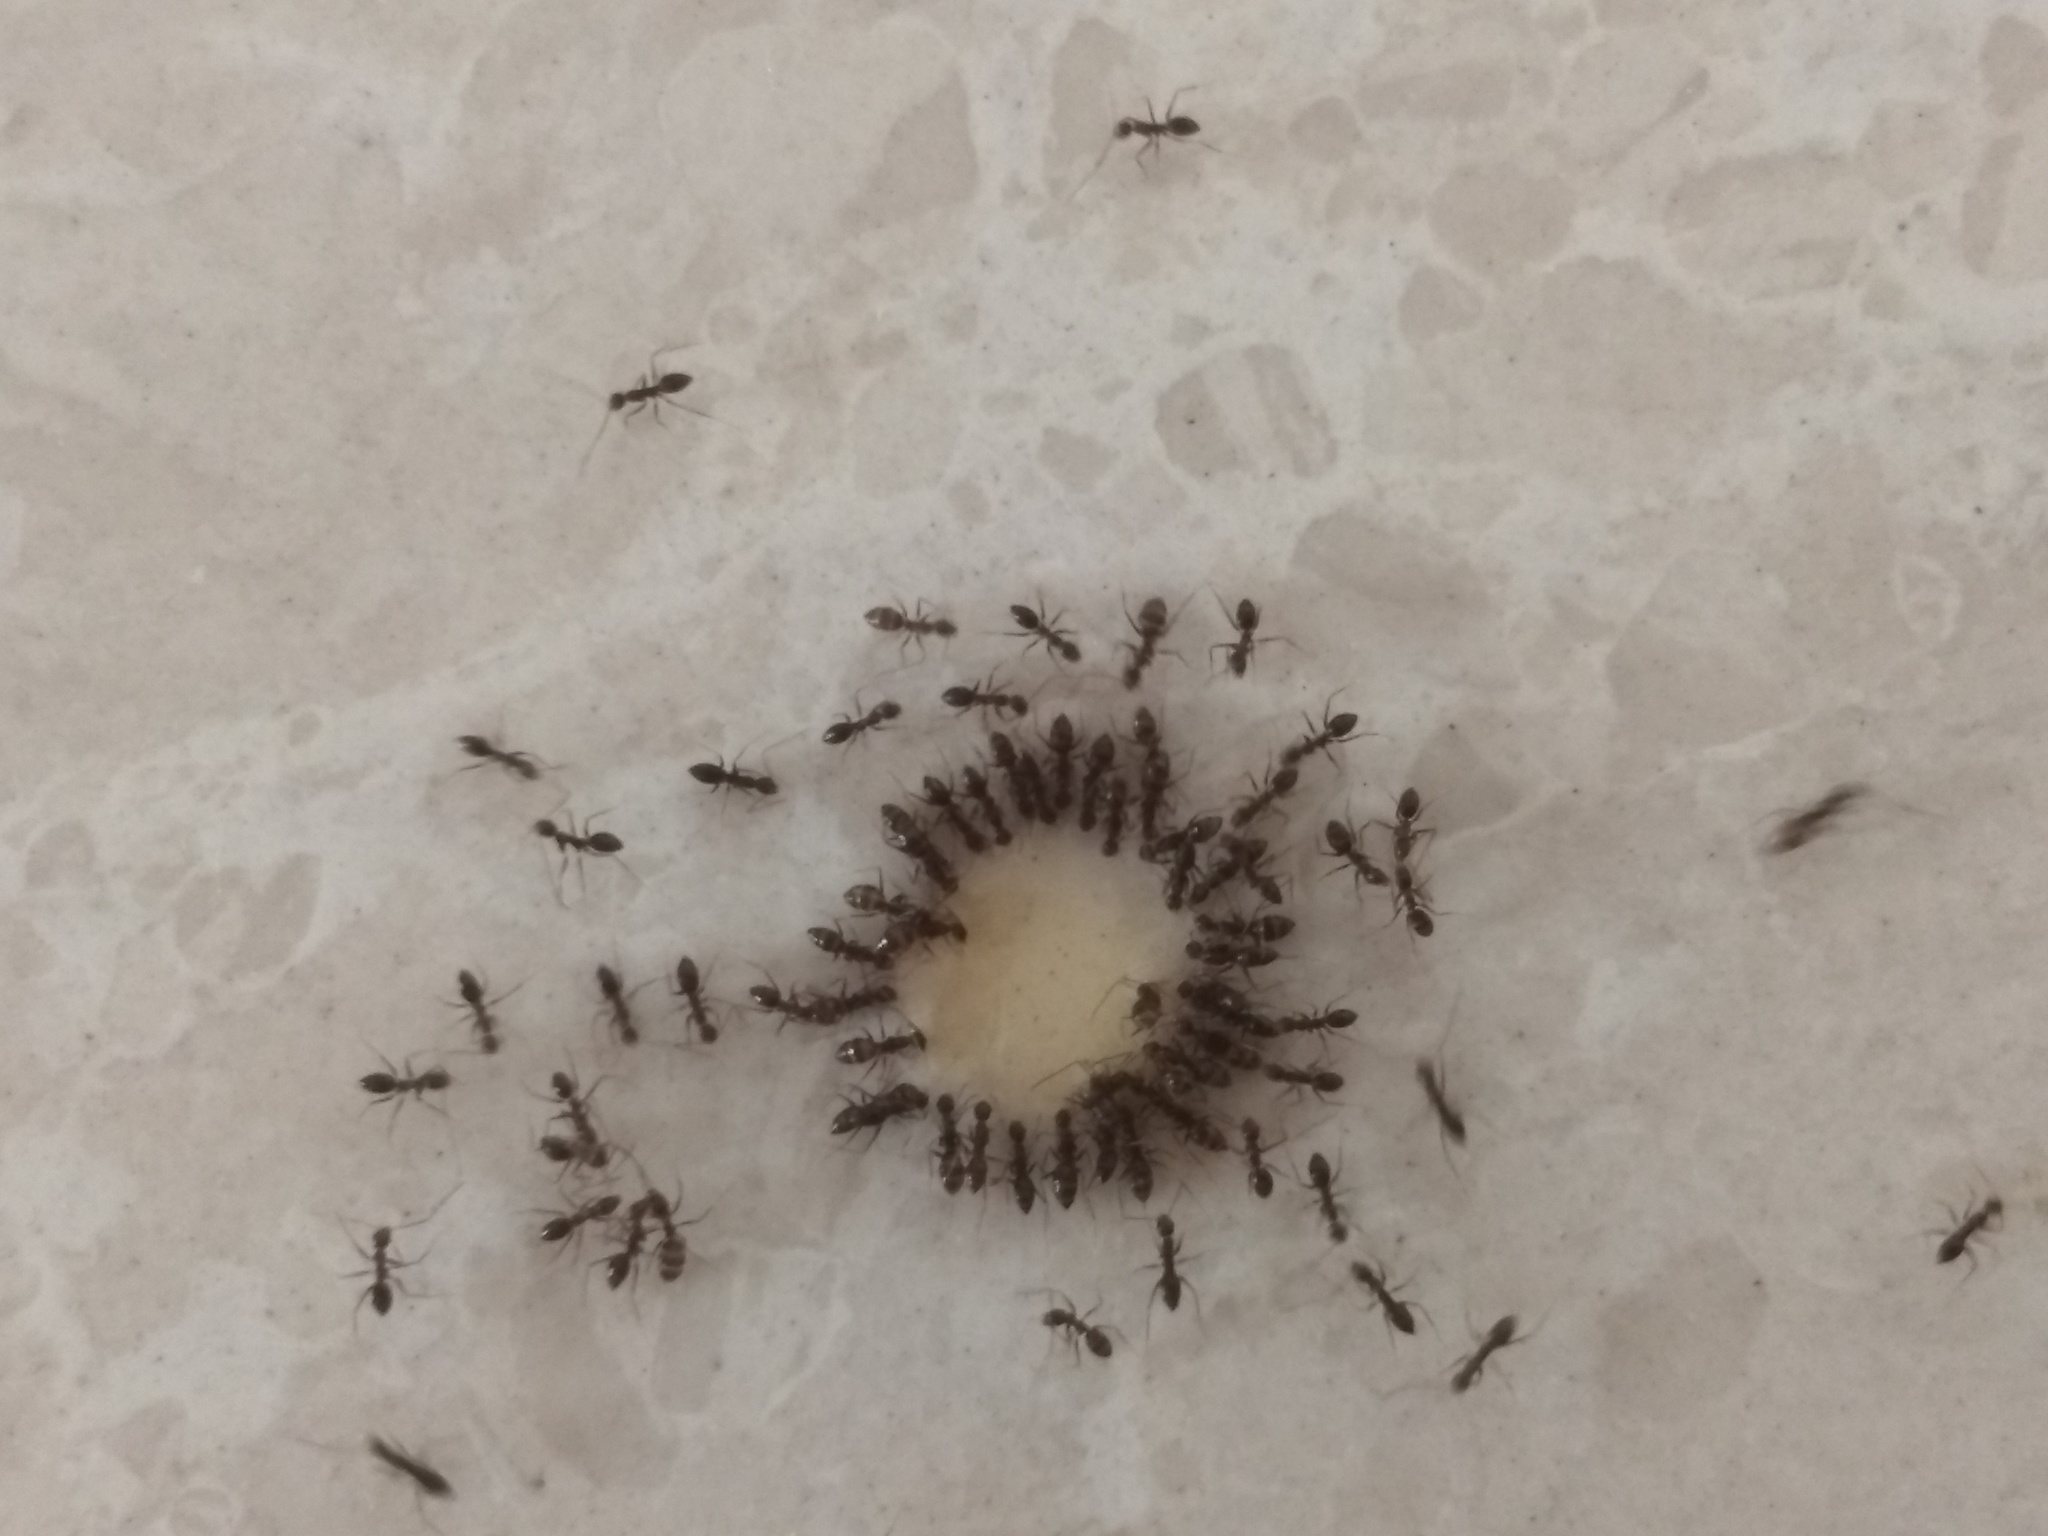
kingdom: Animalia
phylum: Arthropoda
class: Insecta
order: Hymenoptera
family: Formicidae
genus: Paratrechina
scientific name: Paratrechina longicornis
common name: Longhorned crazy ant
